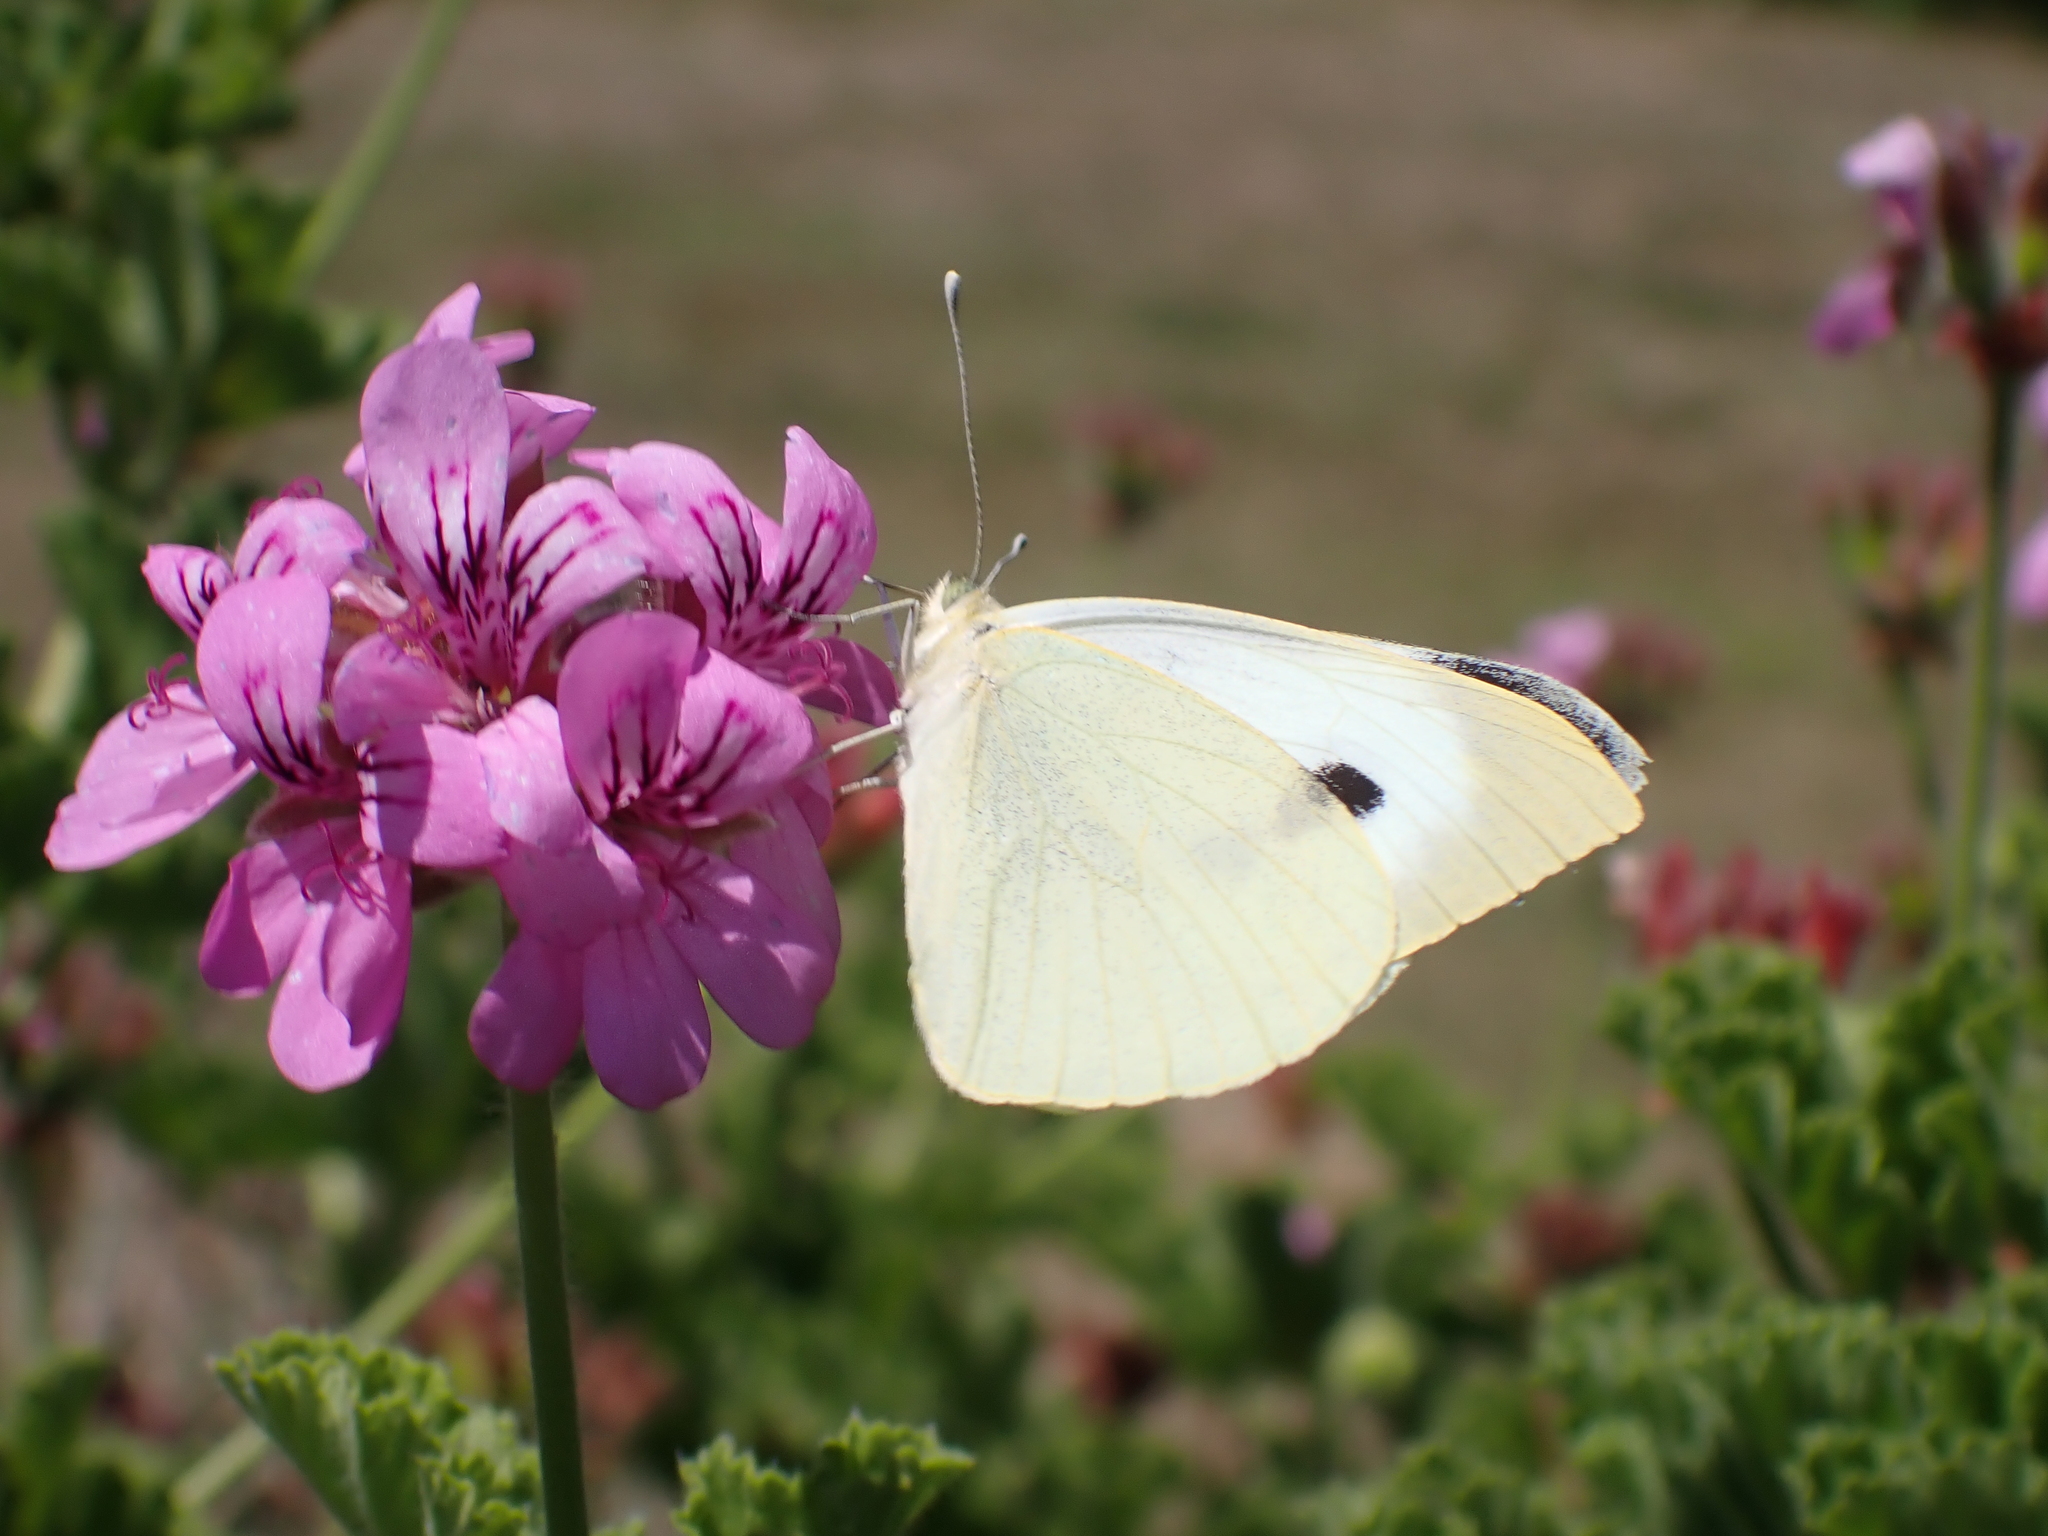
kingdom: Animalia
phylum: Arthropoda
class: Insecta
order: Lepidoptera
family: Pieridae
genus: Pieris
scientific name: Pieris brassicae
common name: Large white
